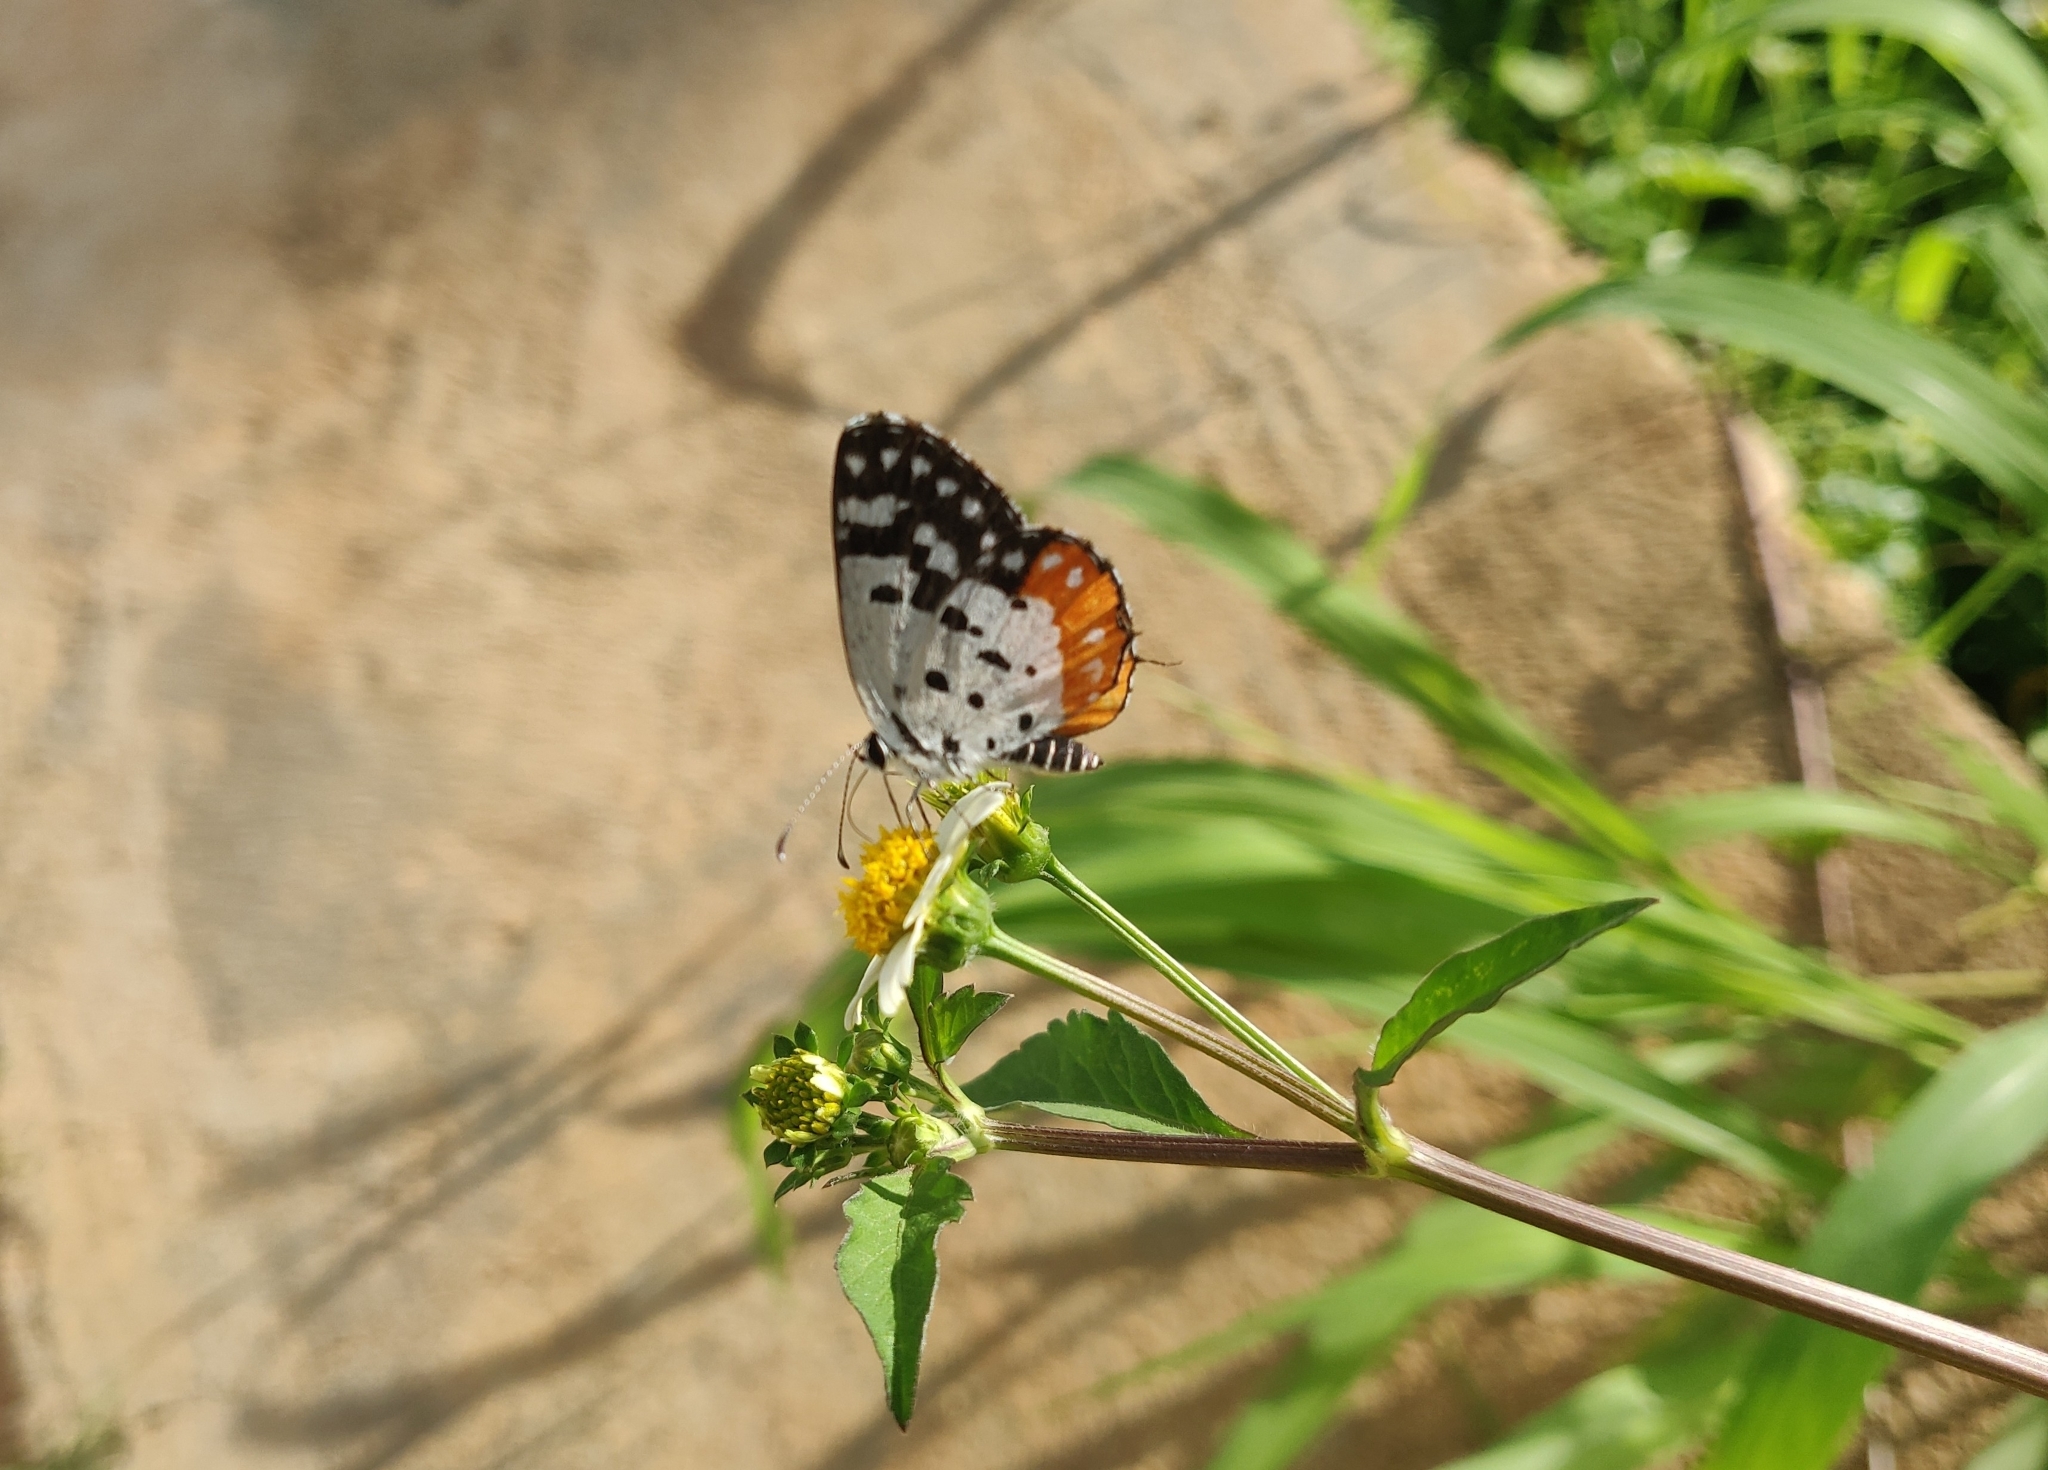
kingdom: Animalia
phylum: Arthropoda
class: Insecta
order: Lepidoptera
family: Lycaenidae
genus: Talicada
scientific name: Talicada nyseus
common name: Red pierrot
